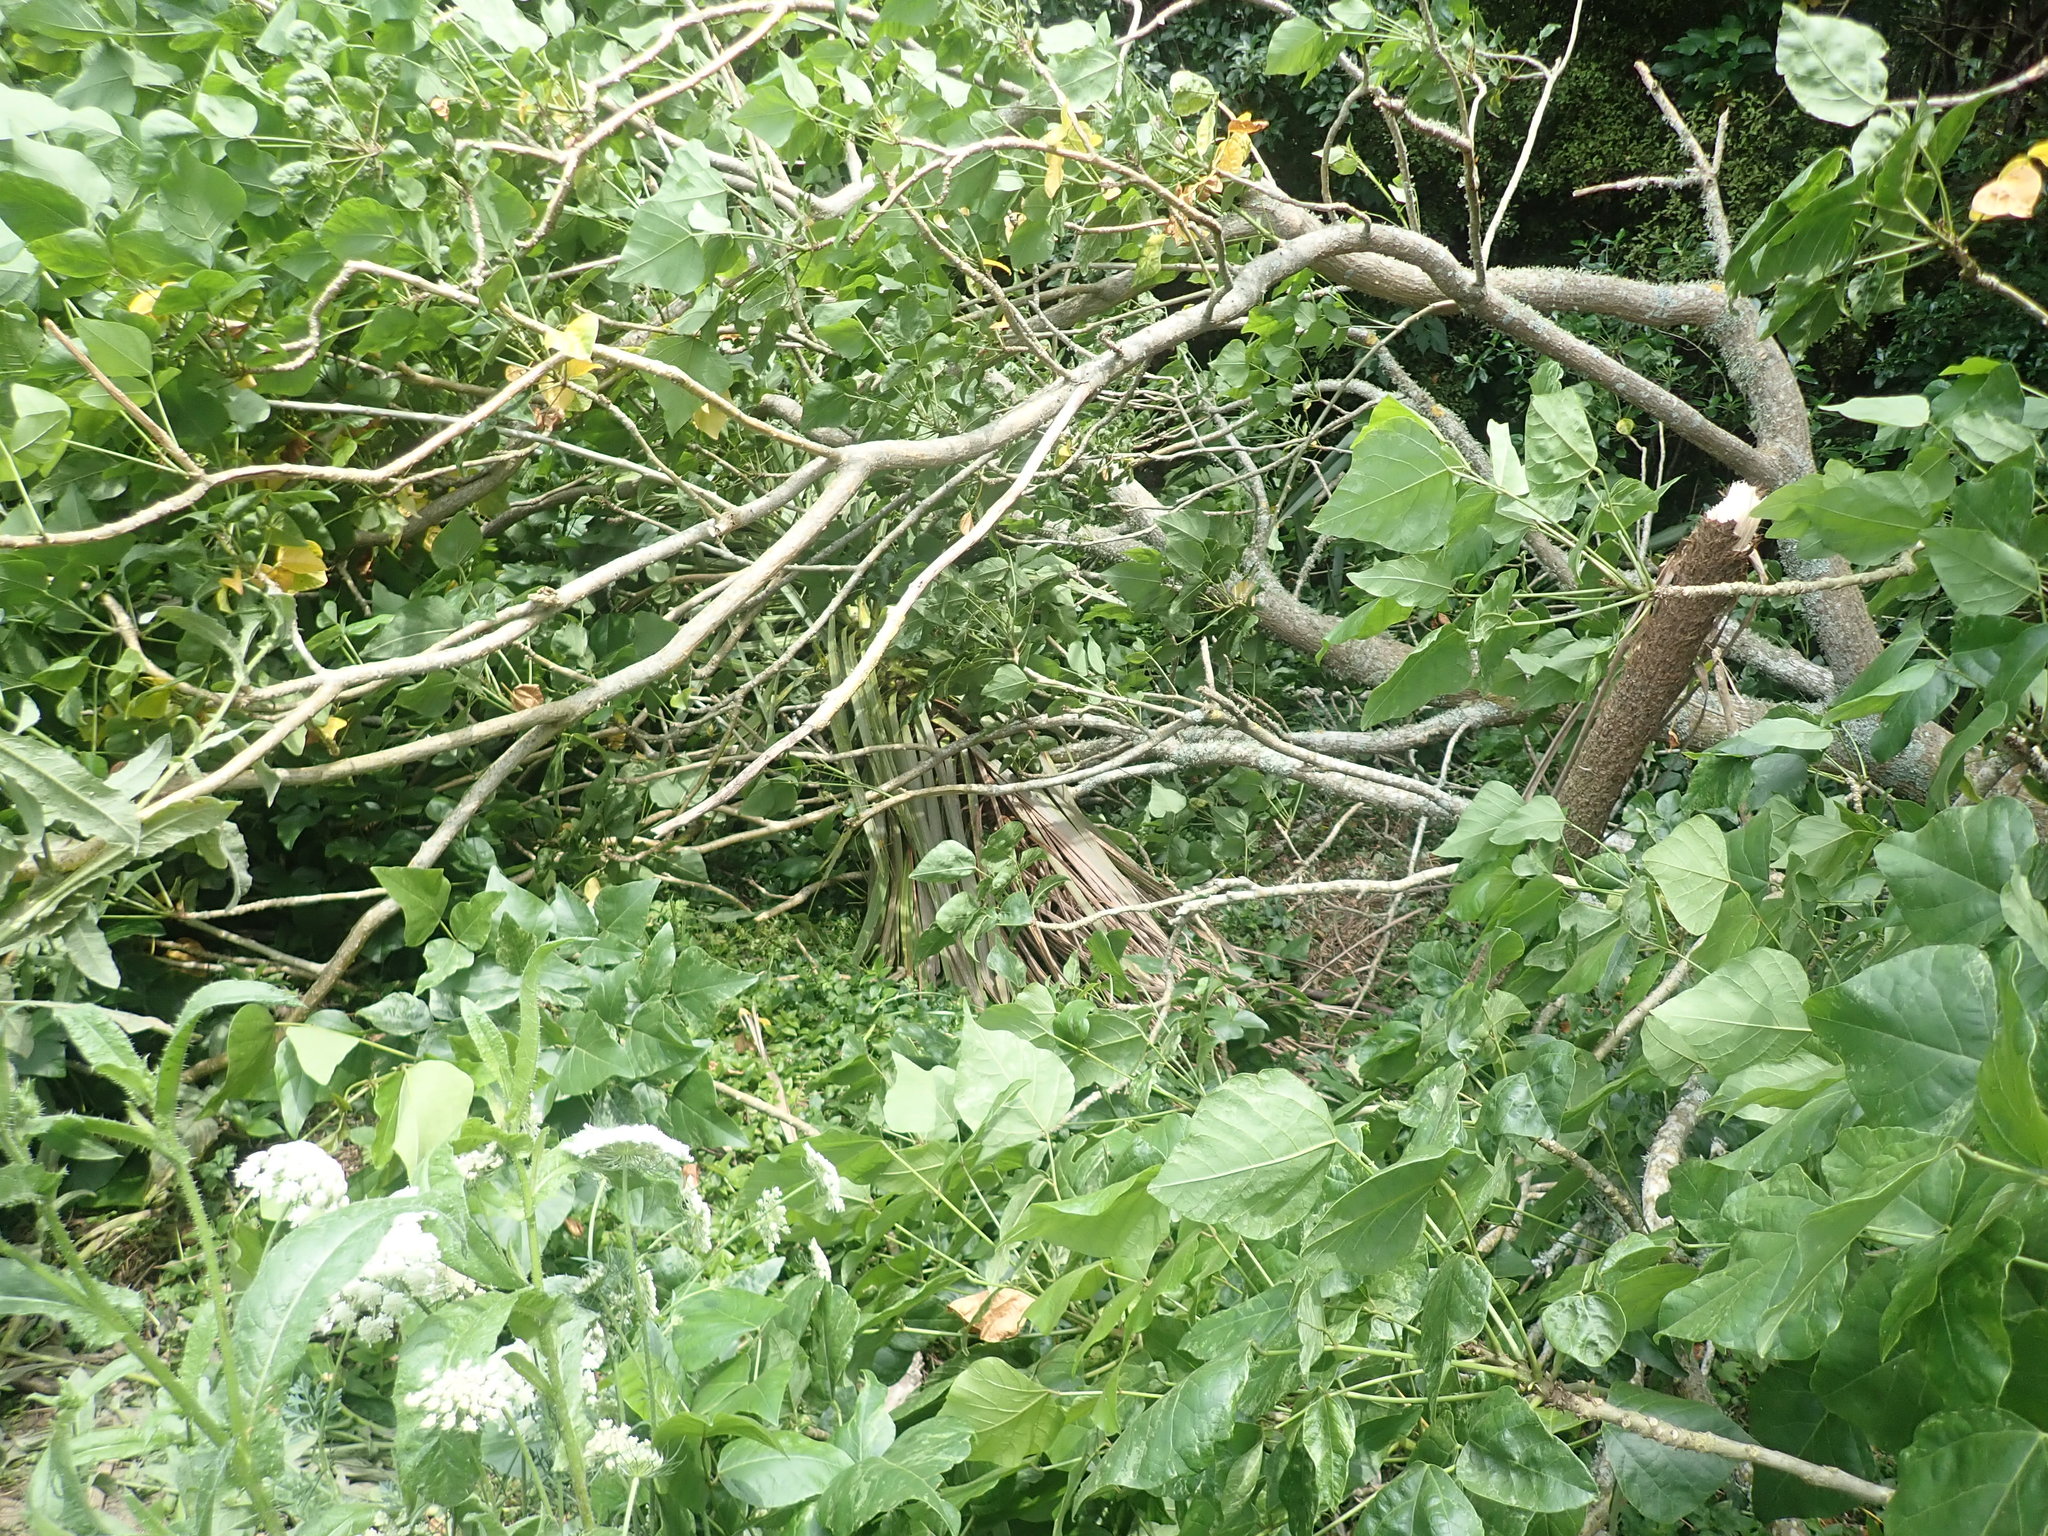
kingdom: Plantae
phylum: Tracheophyta
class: Liliopsida
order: Asparagales
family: Asparagaceae
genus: Cordyline
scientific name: Cordyline australis
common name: Cabbage-palm
